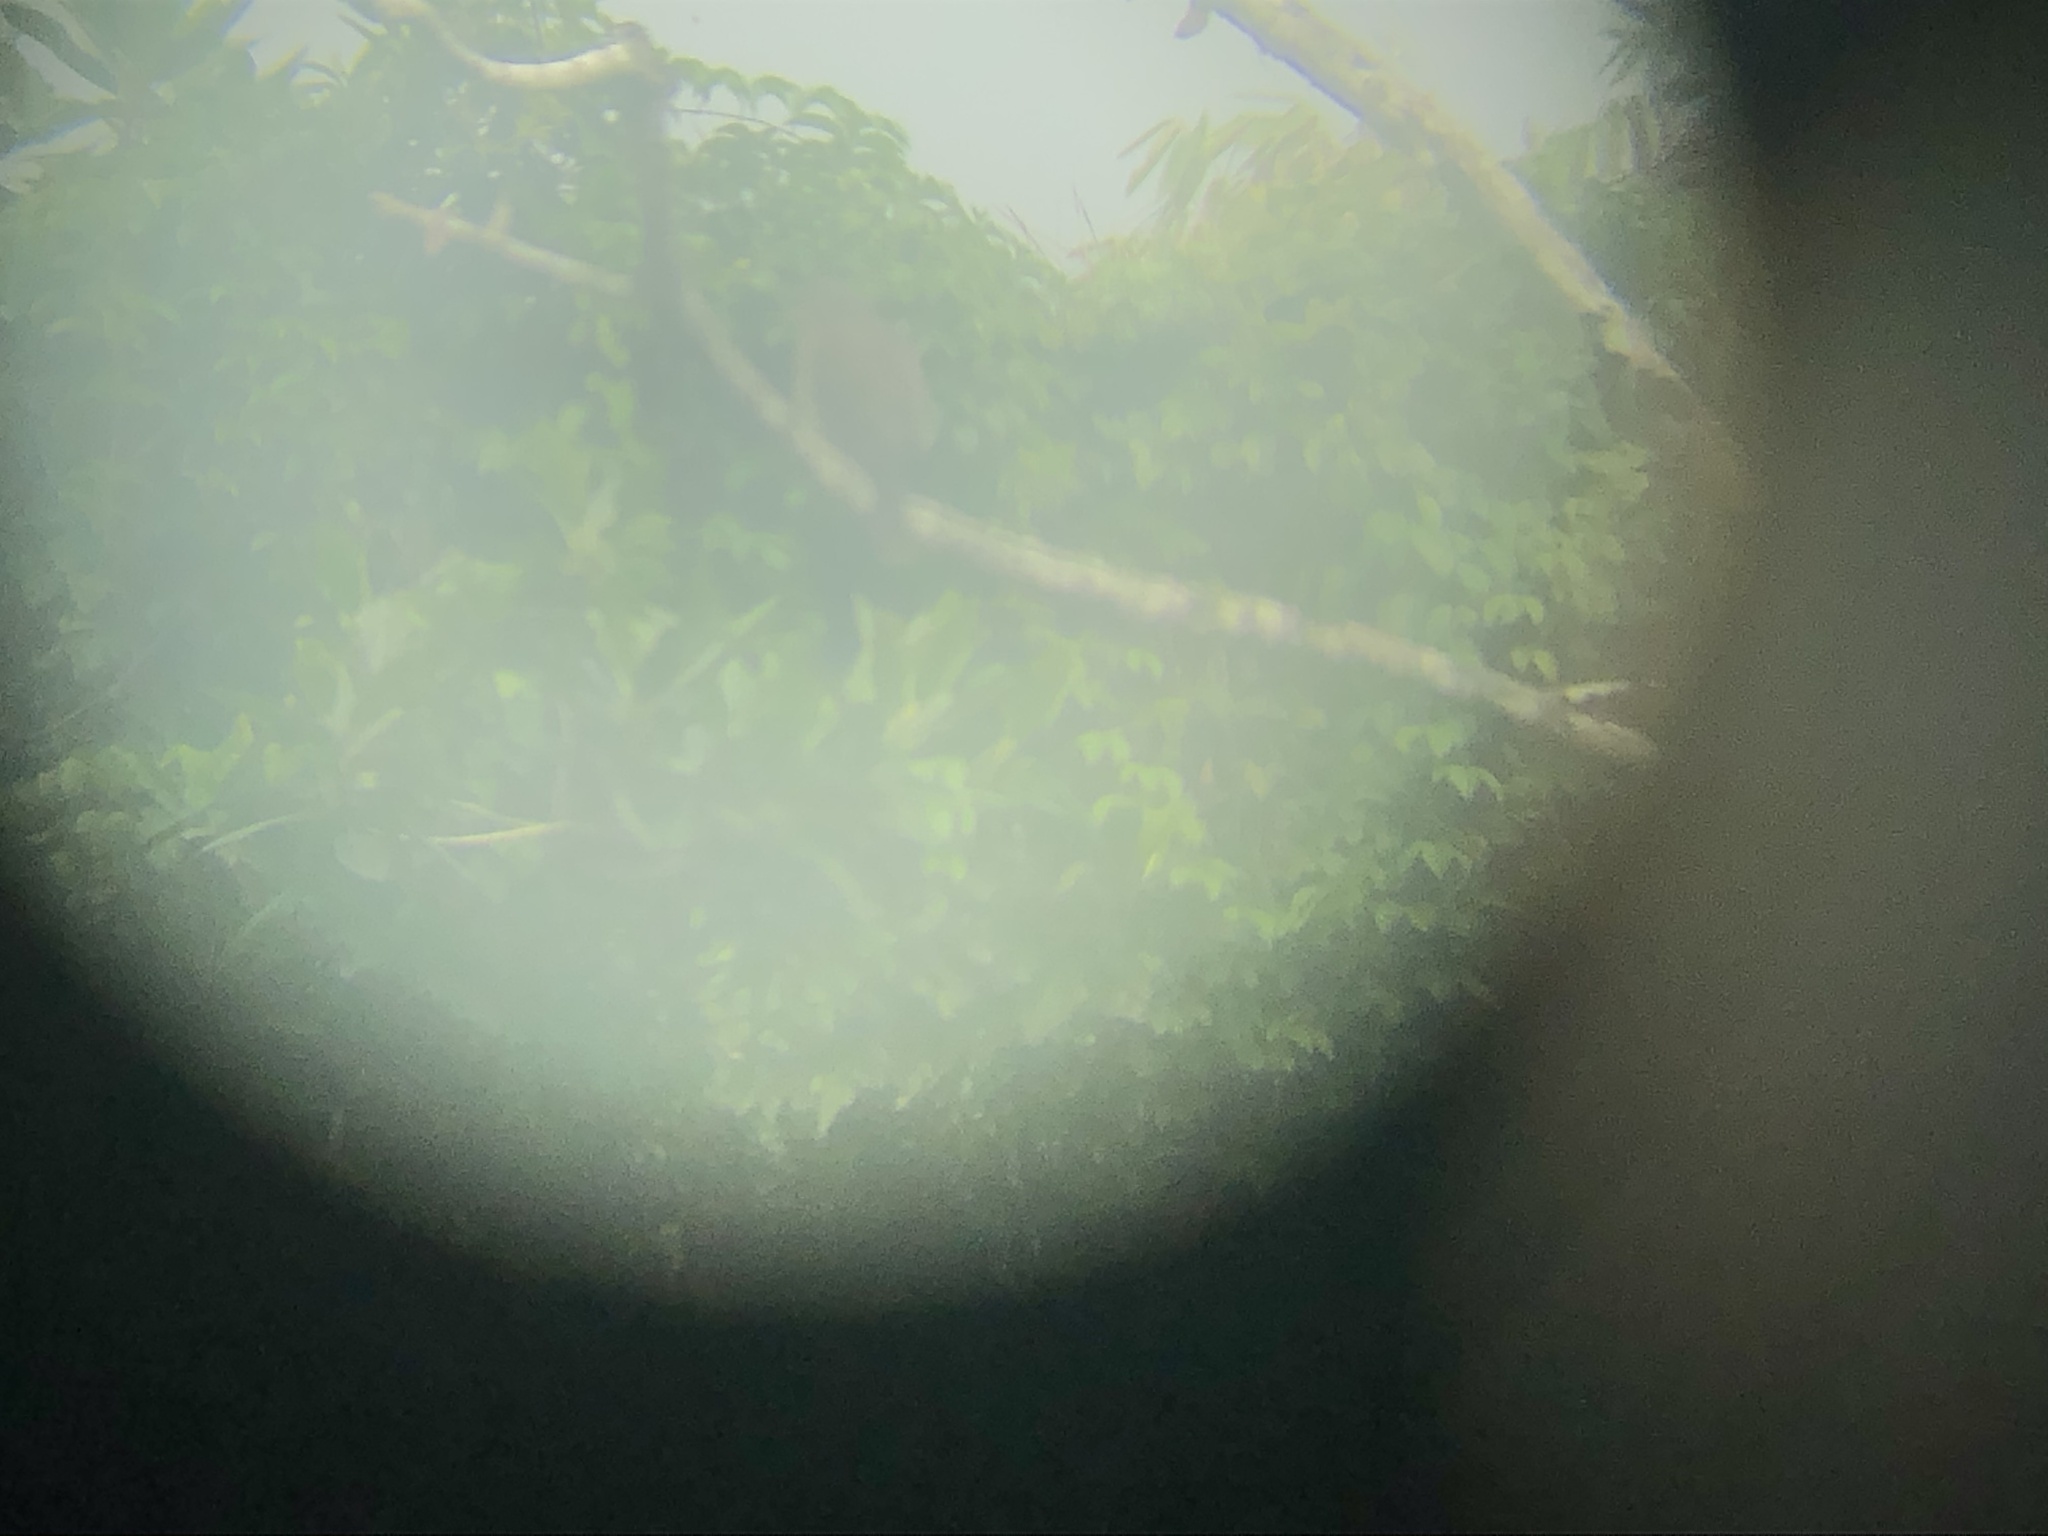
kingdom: Animalia
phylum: Chordata
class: Aves
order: Accipitriformes
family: Accipitridae
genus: Rupornis
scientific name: Rupornis magnirostris
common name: Roadside hawk
